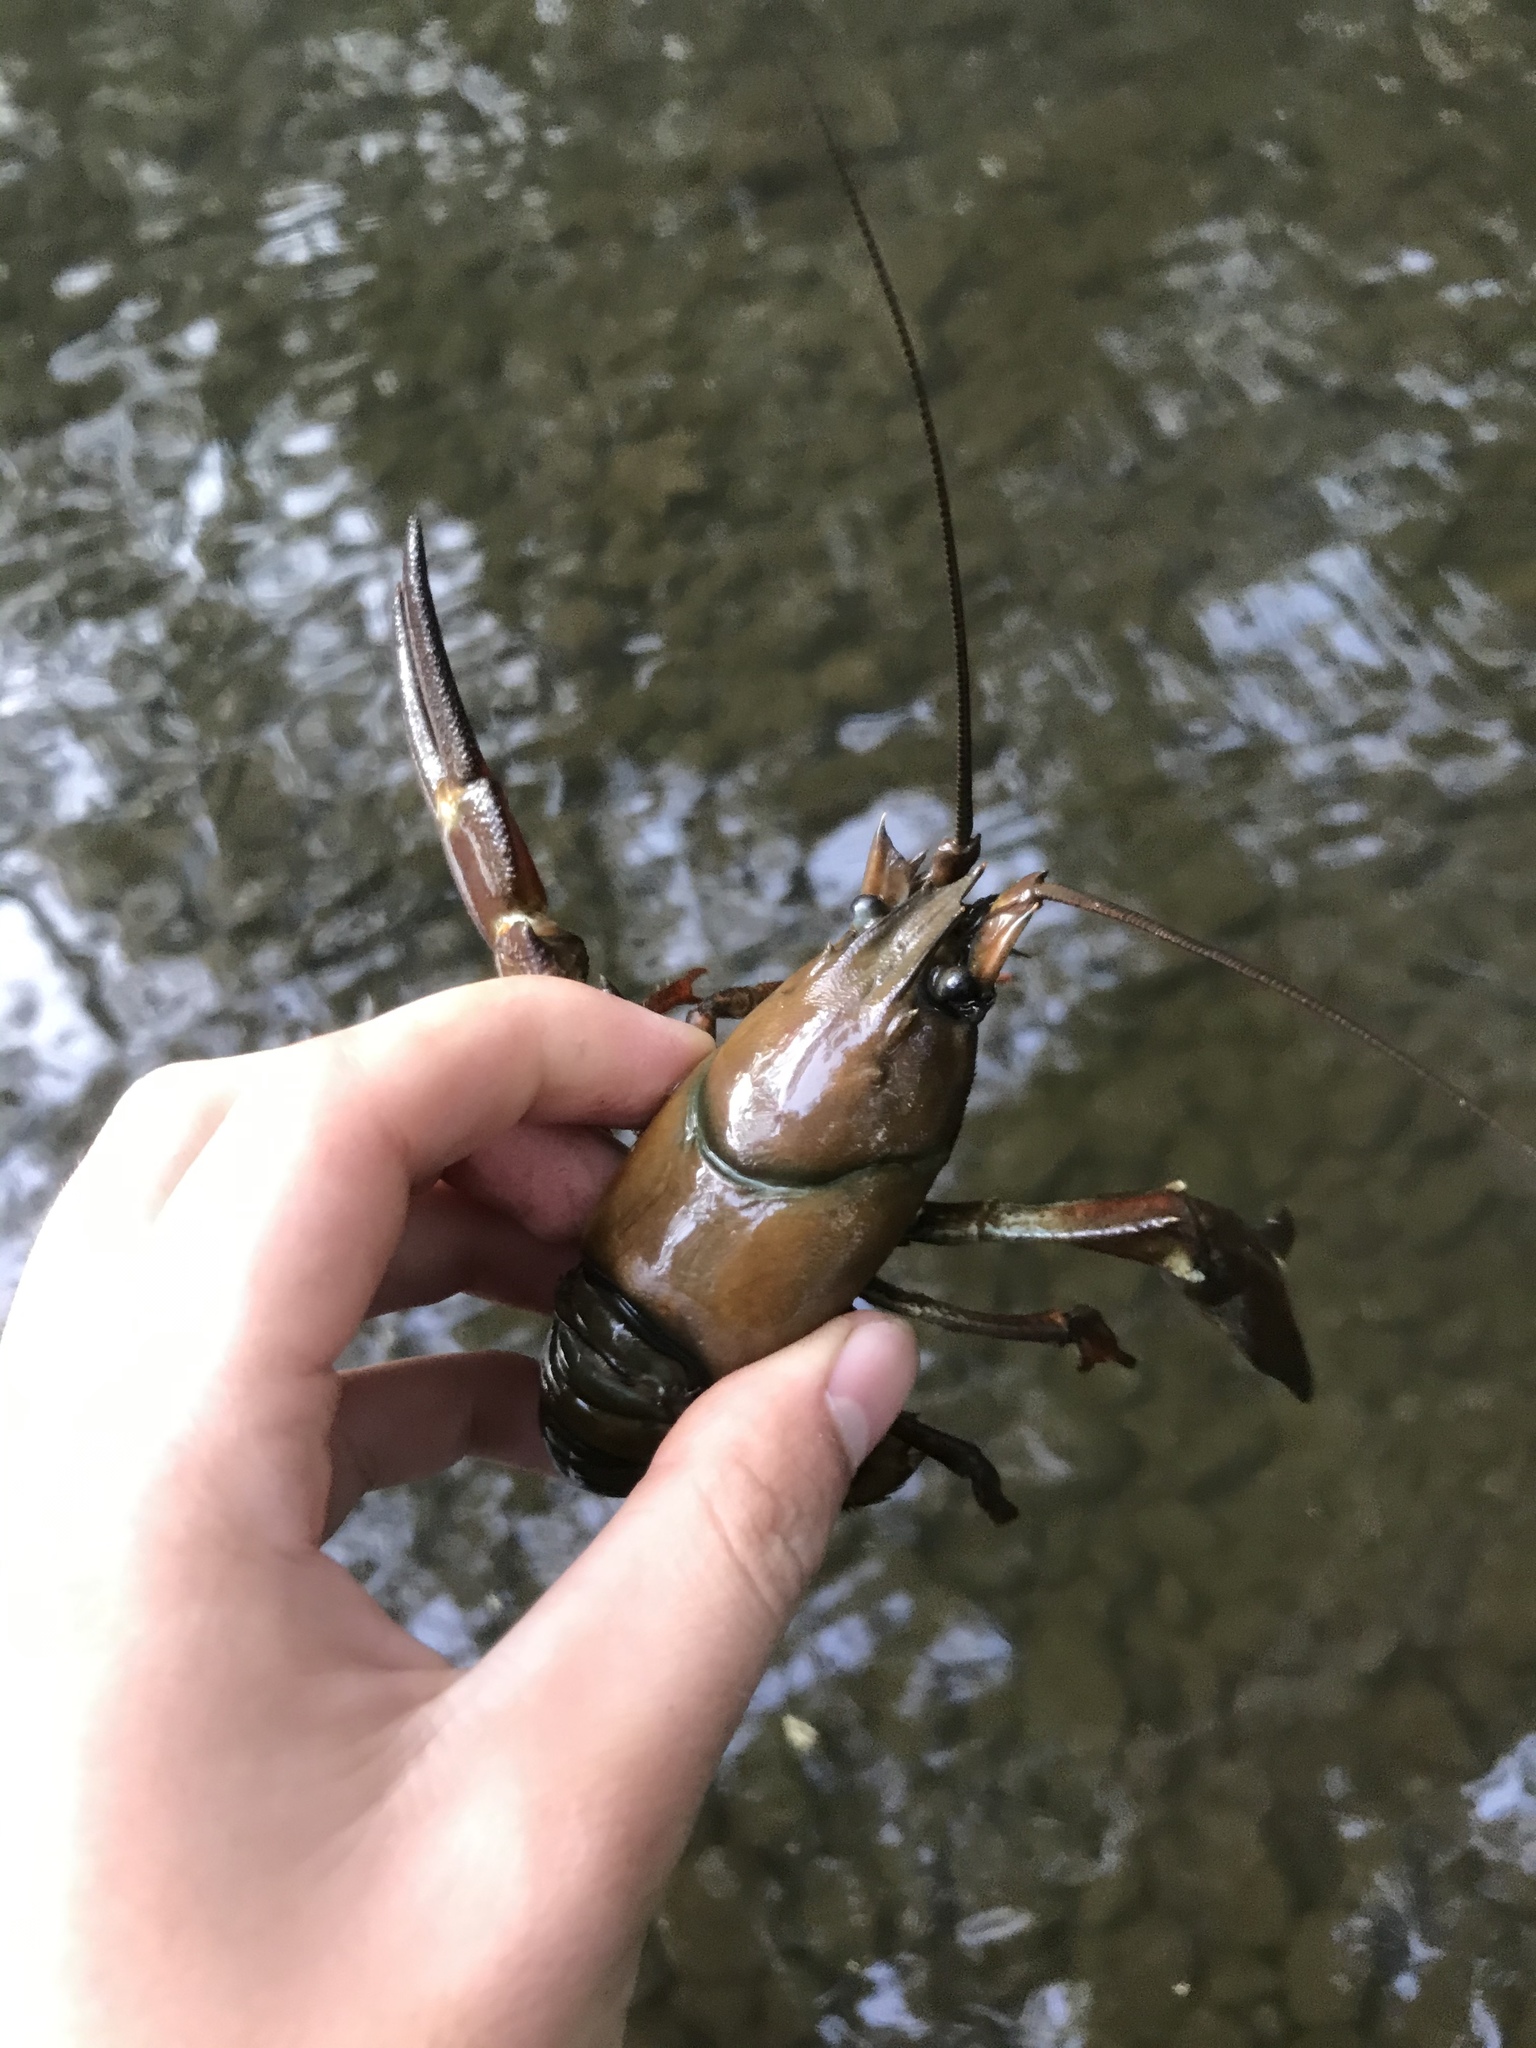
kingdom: Animalia
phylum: Arthropoda
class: Malacostraca
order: Decapoda
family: Astacidae
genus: Pacifastacus
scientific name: Pacifastacus leniusculus
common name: Signal crayfish
